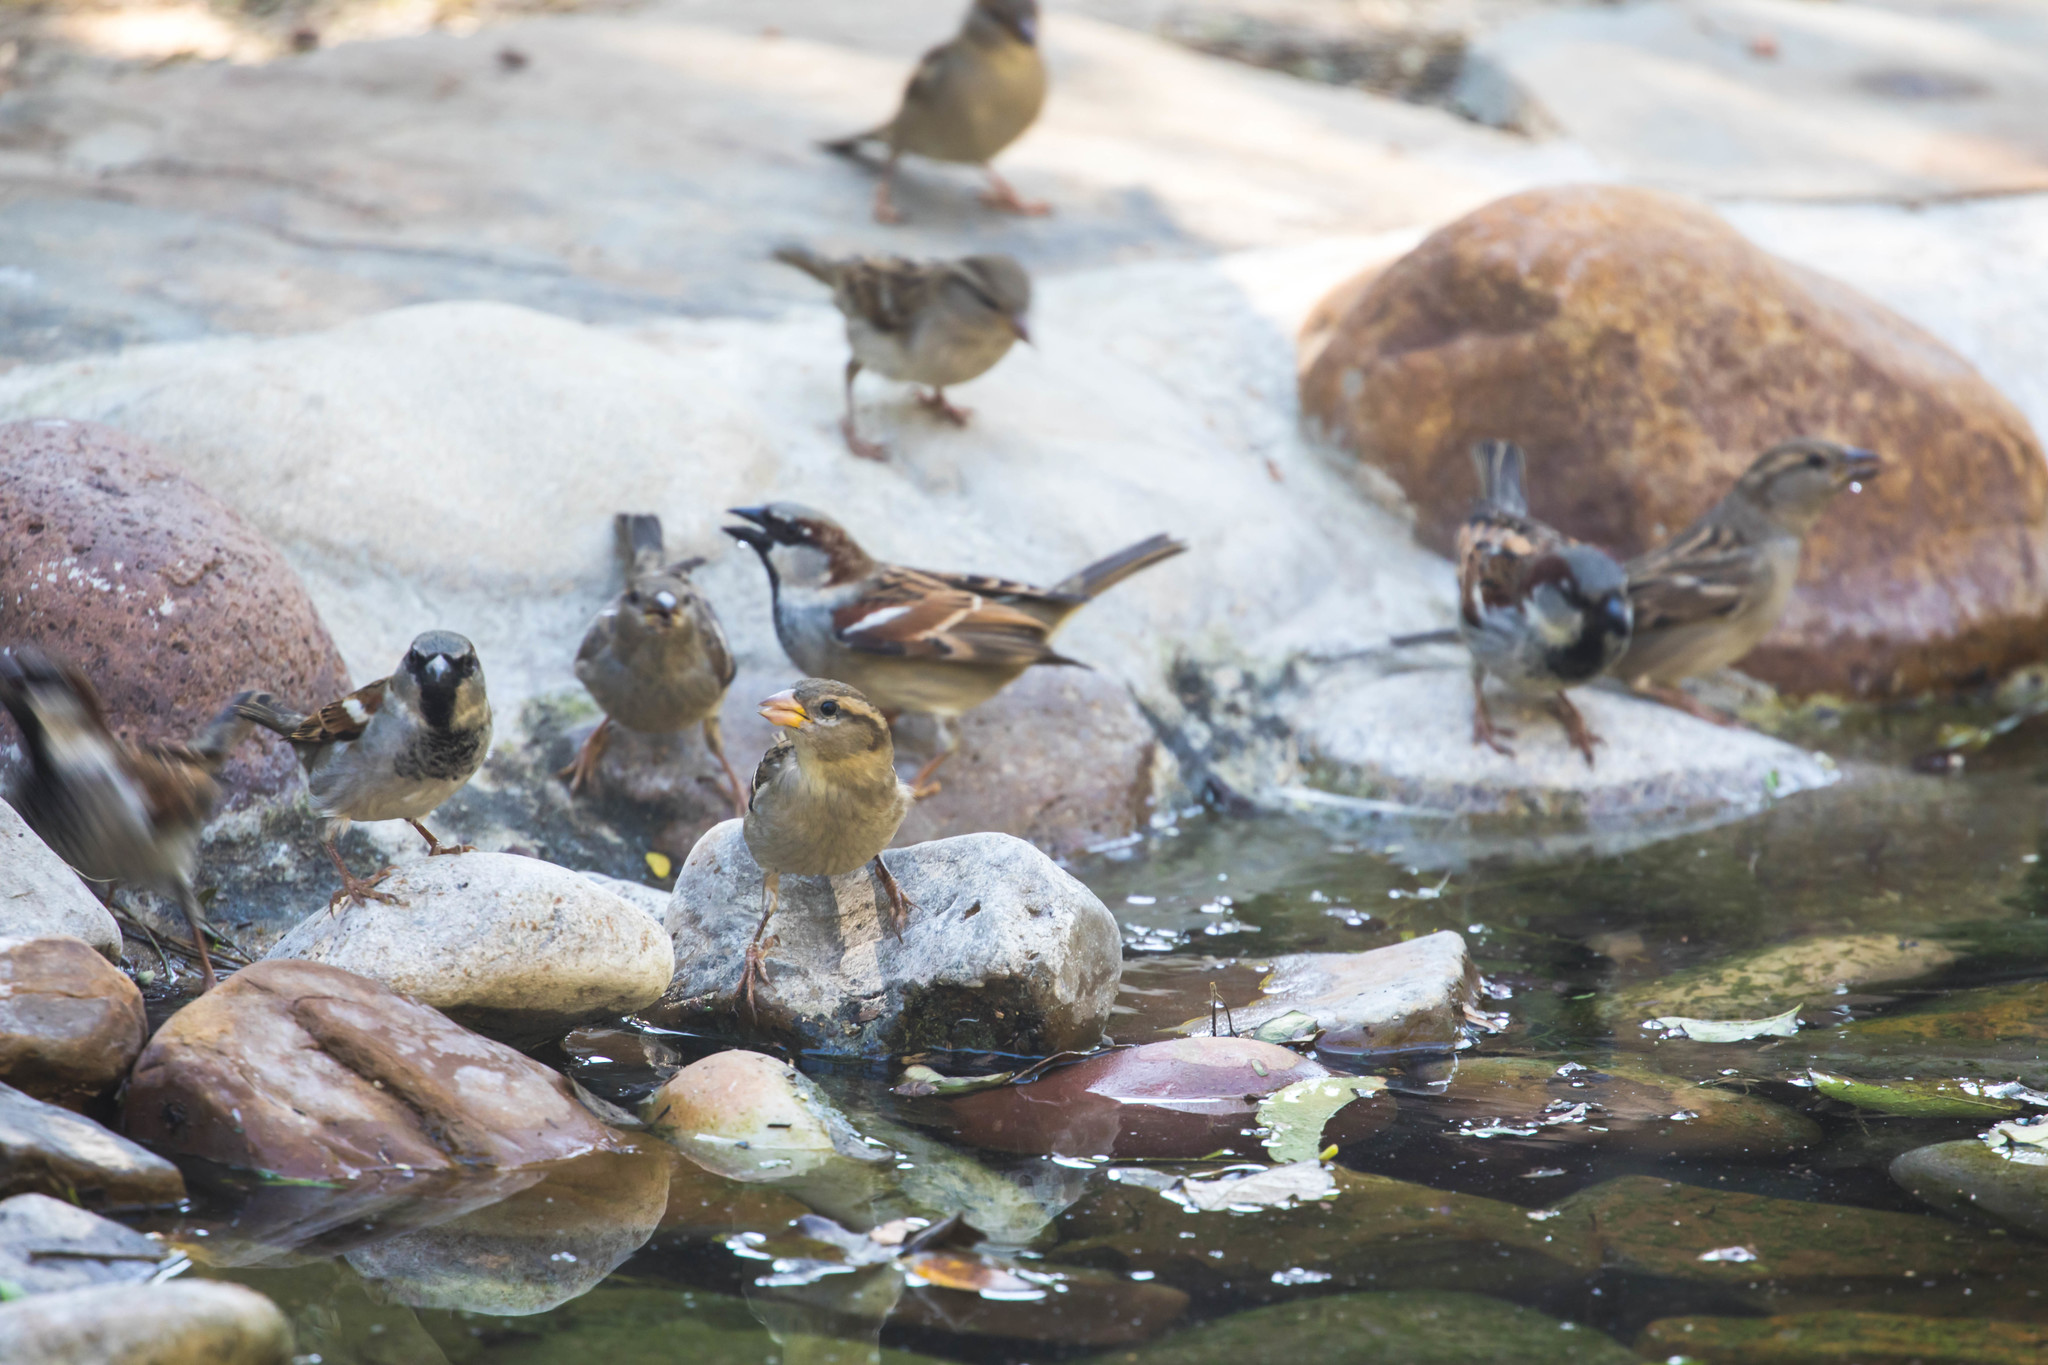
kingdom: Animalia
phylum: Chordata
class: Aves
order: Passeriformes
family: Passeridae
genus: Passer
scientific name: Passer domesticus
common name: House sparrow
